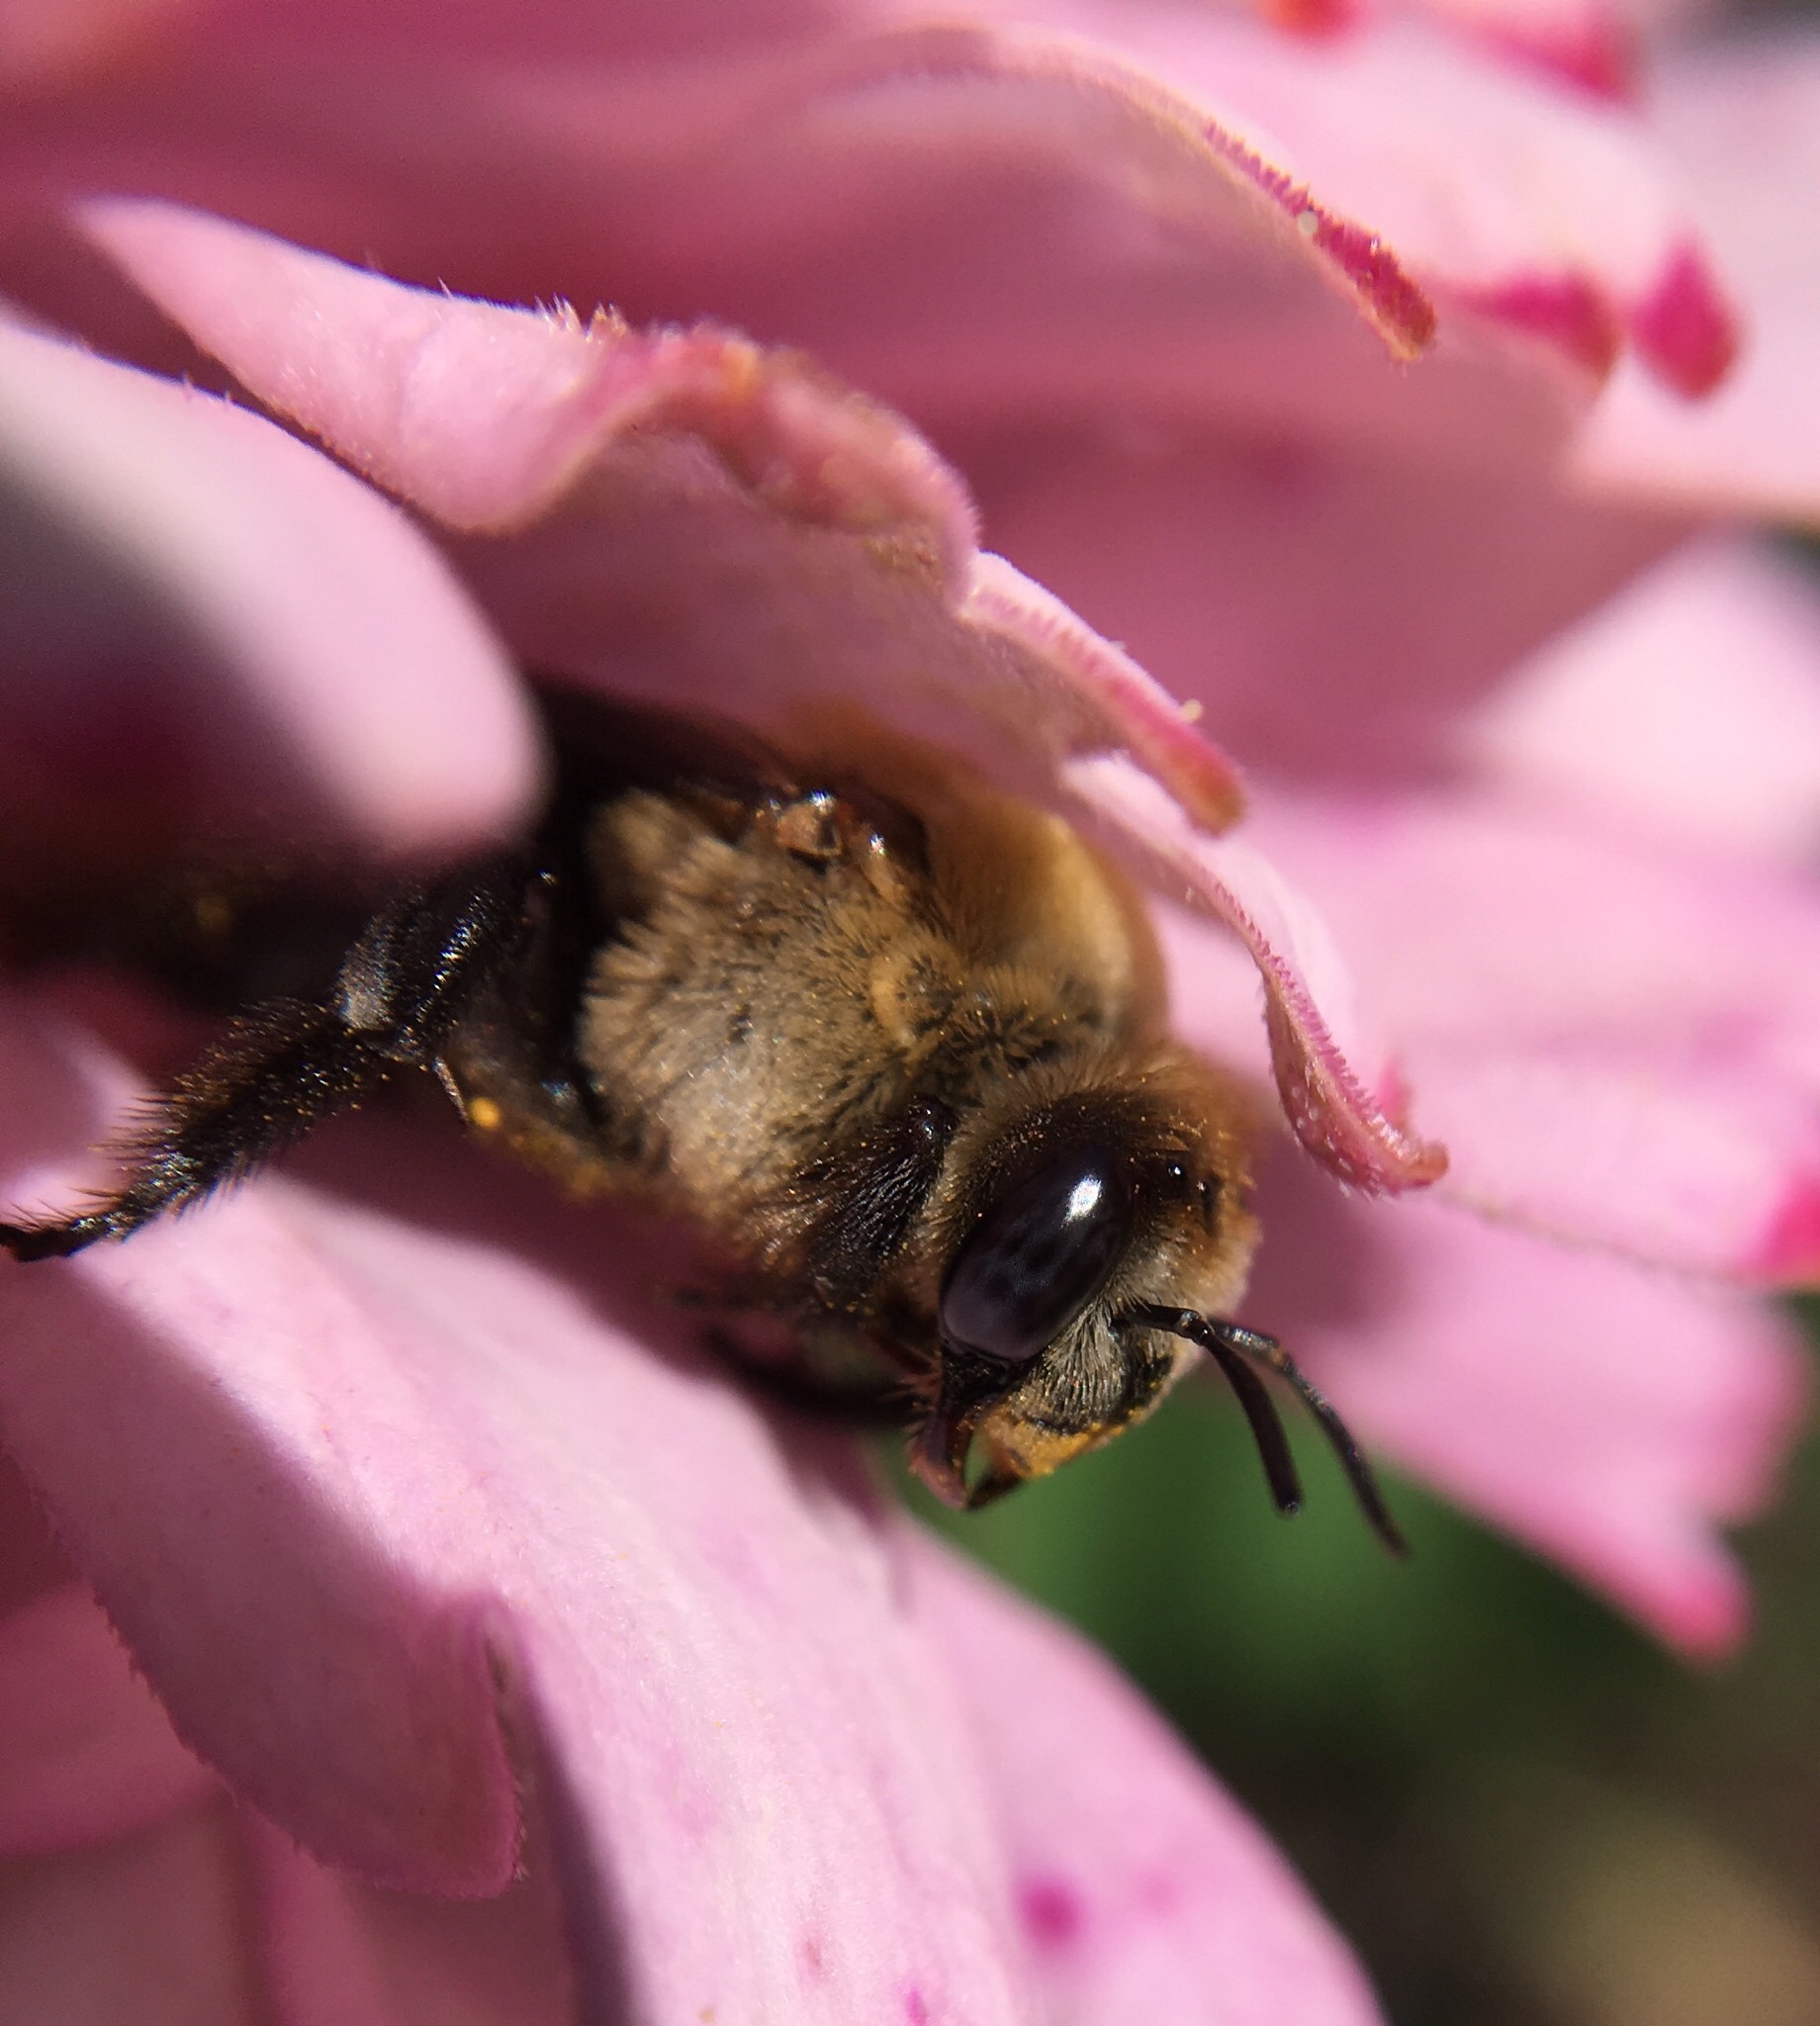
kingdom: Animalia
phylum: Arthropoda
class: Insecta
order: Hymenoptera
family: Apidae
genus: Ptilothrix
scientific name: Ptilothrix bombiformis
